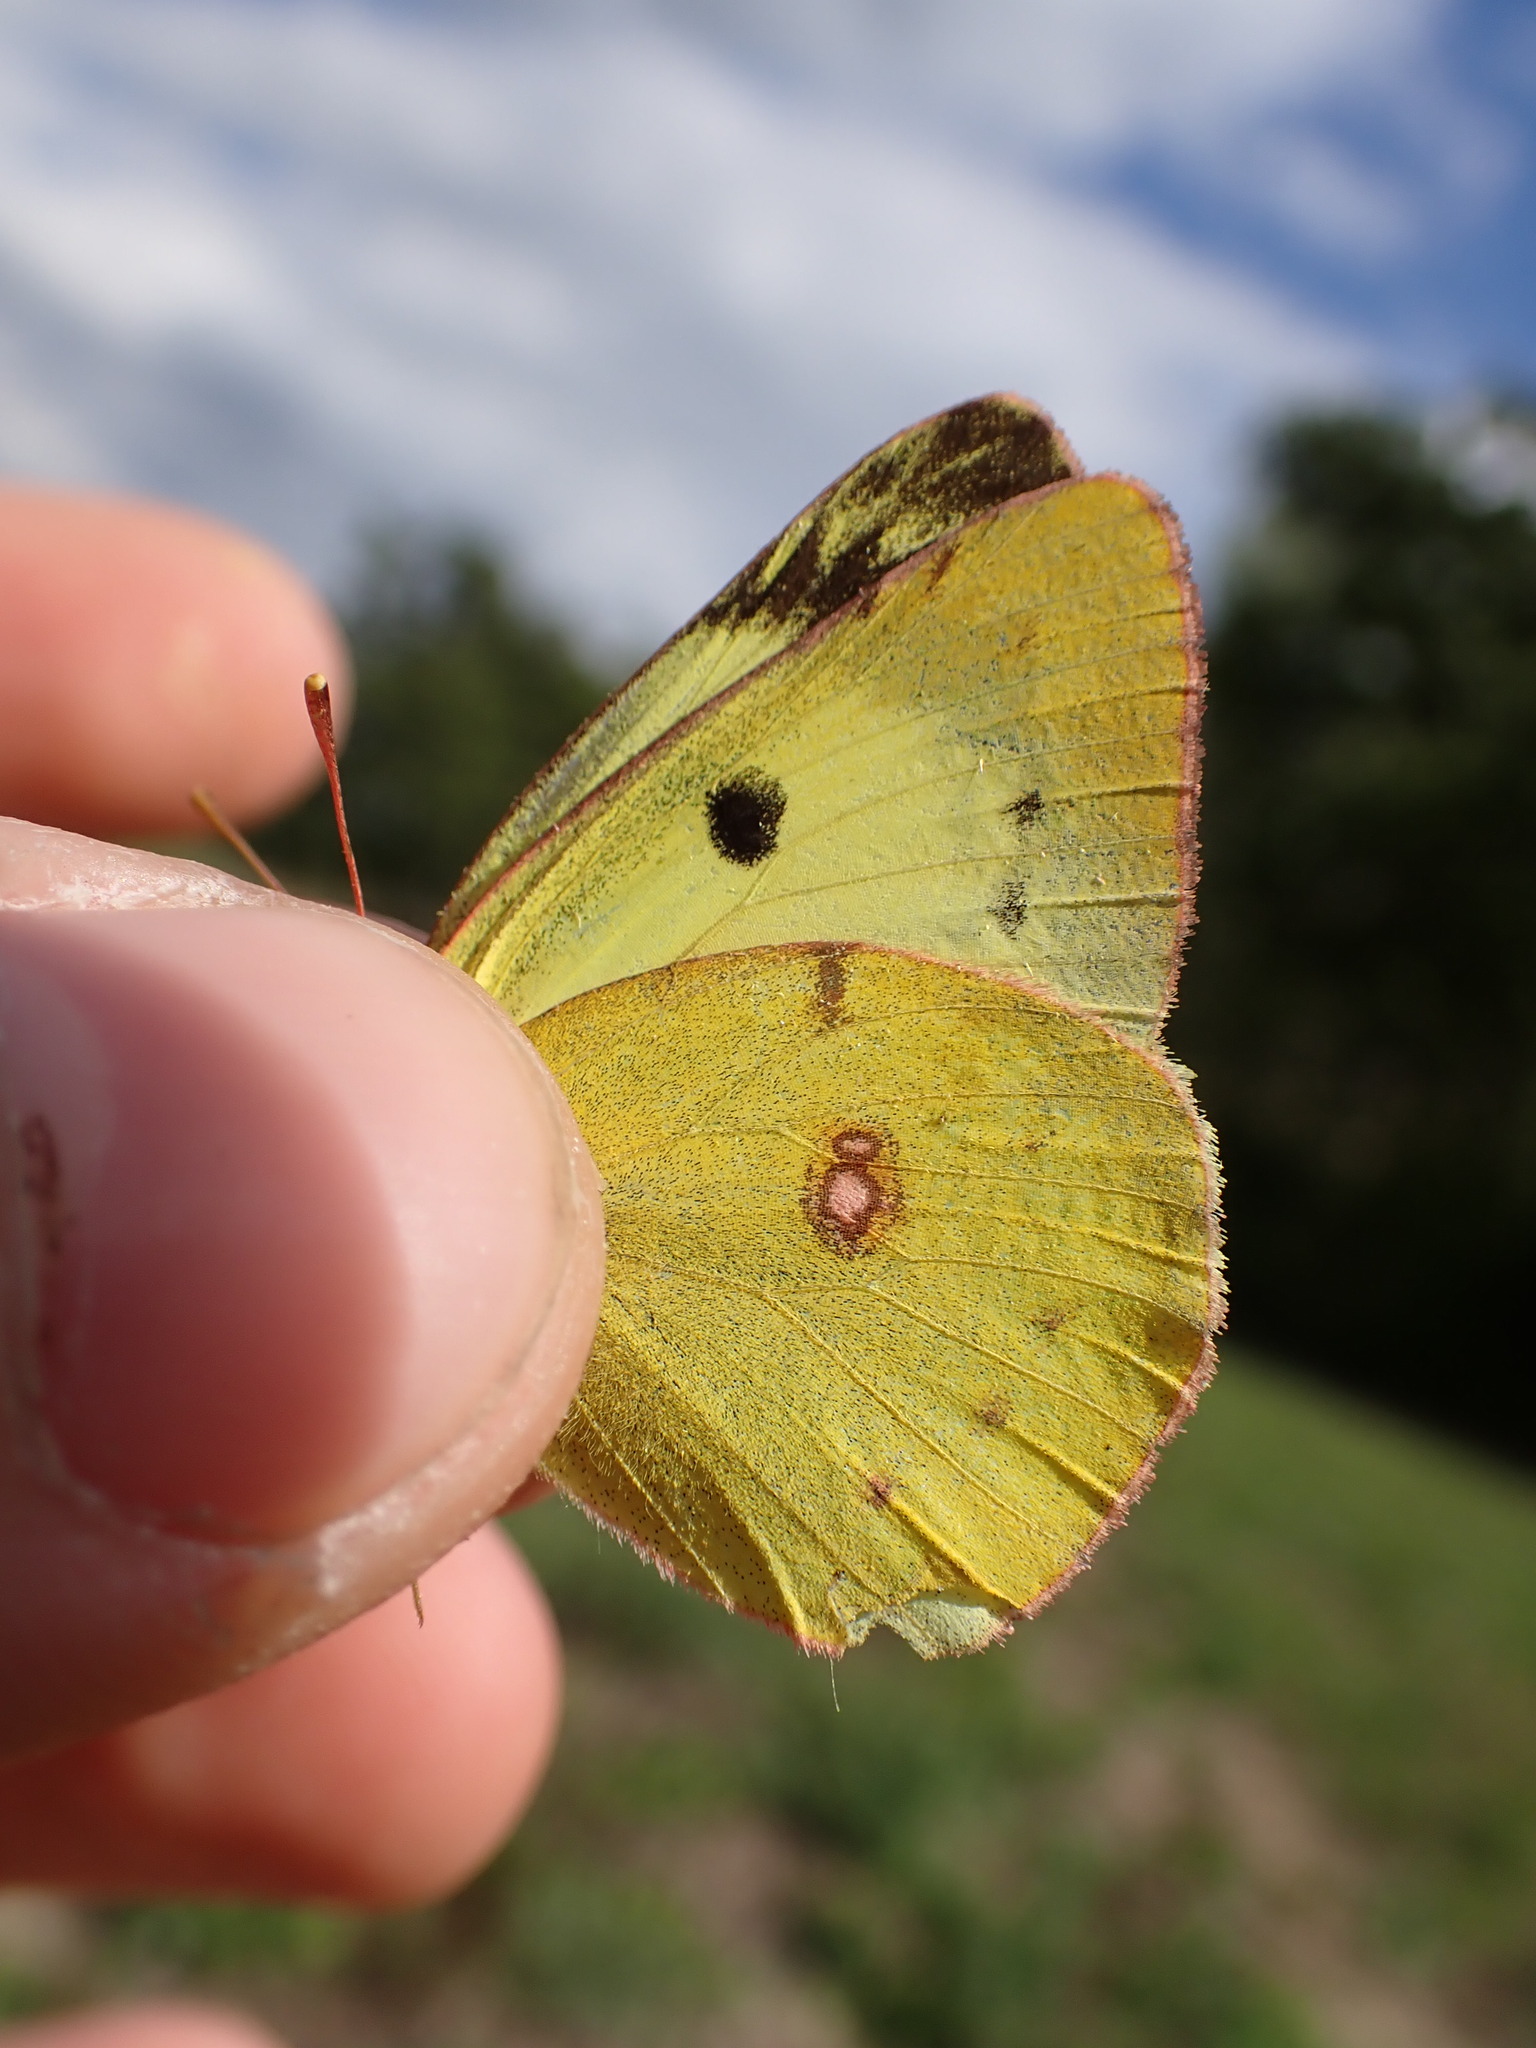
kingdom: Animalia
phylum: Arthropoda
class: Insecta
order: Lepidoptera
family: Pieridae
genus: Colias
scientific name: Colias croceus
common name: Clouded yellow
